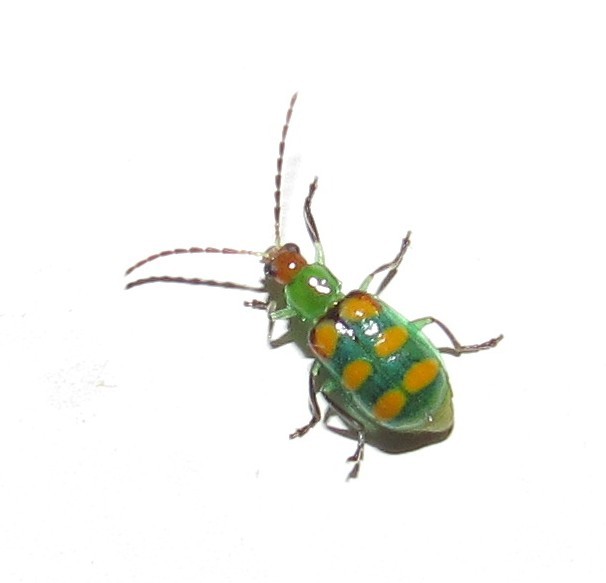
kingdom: Animalia
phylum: Arthropoda
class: Insecta
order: Coleoptera
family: Chrysomelidae
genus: Diabrotica
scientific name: Diabrotica speciosa
